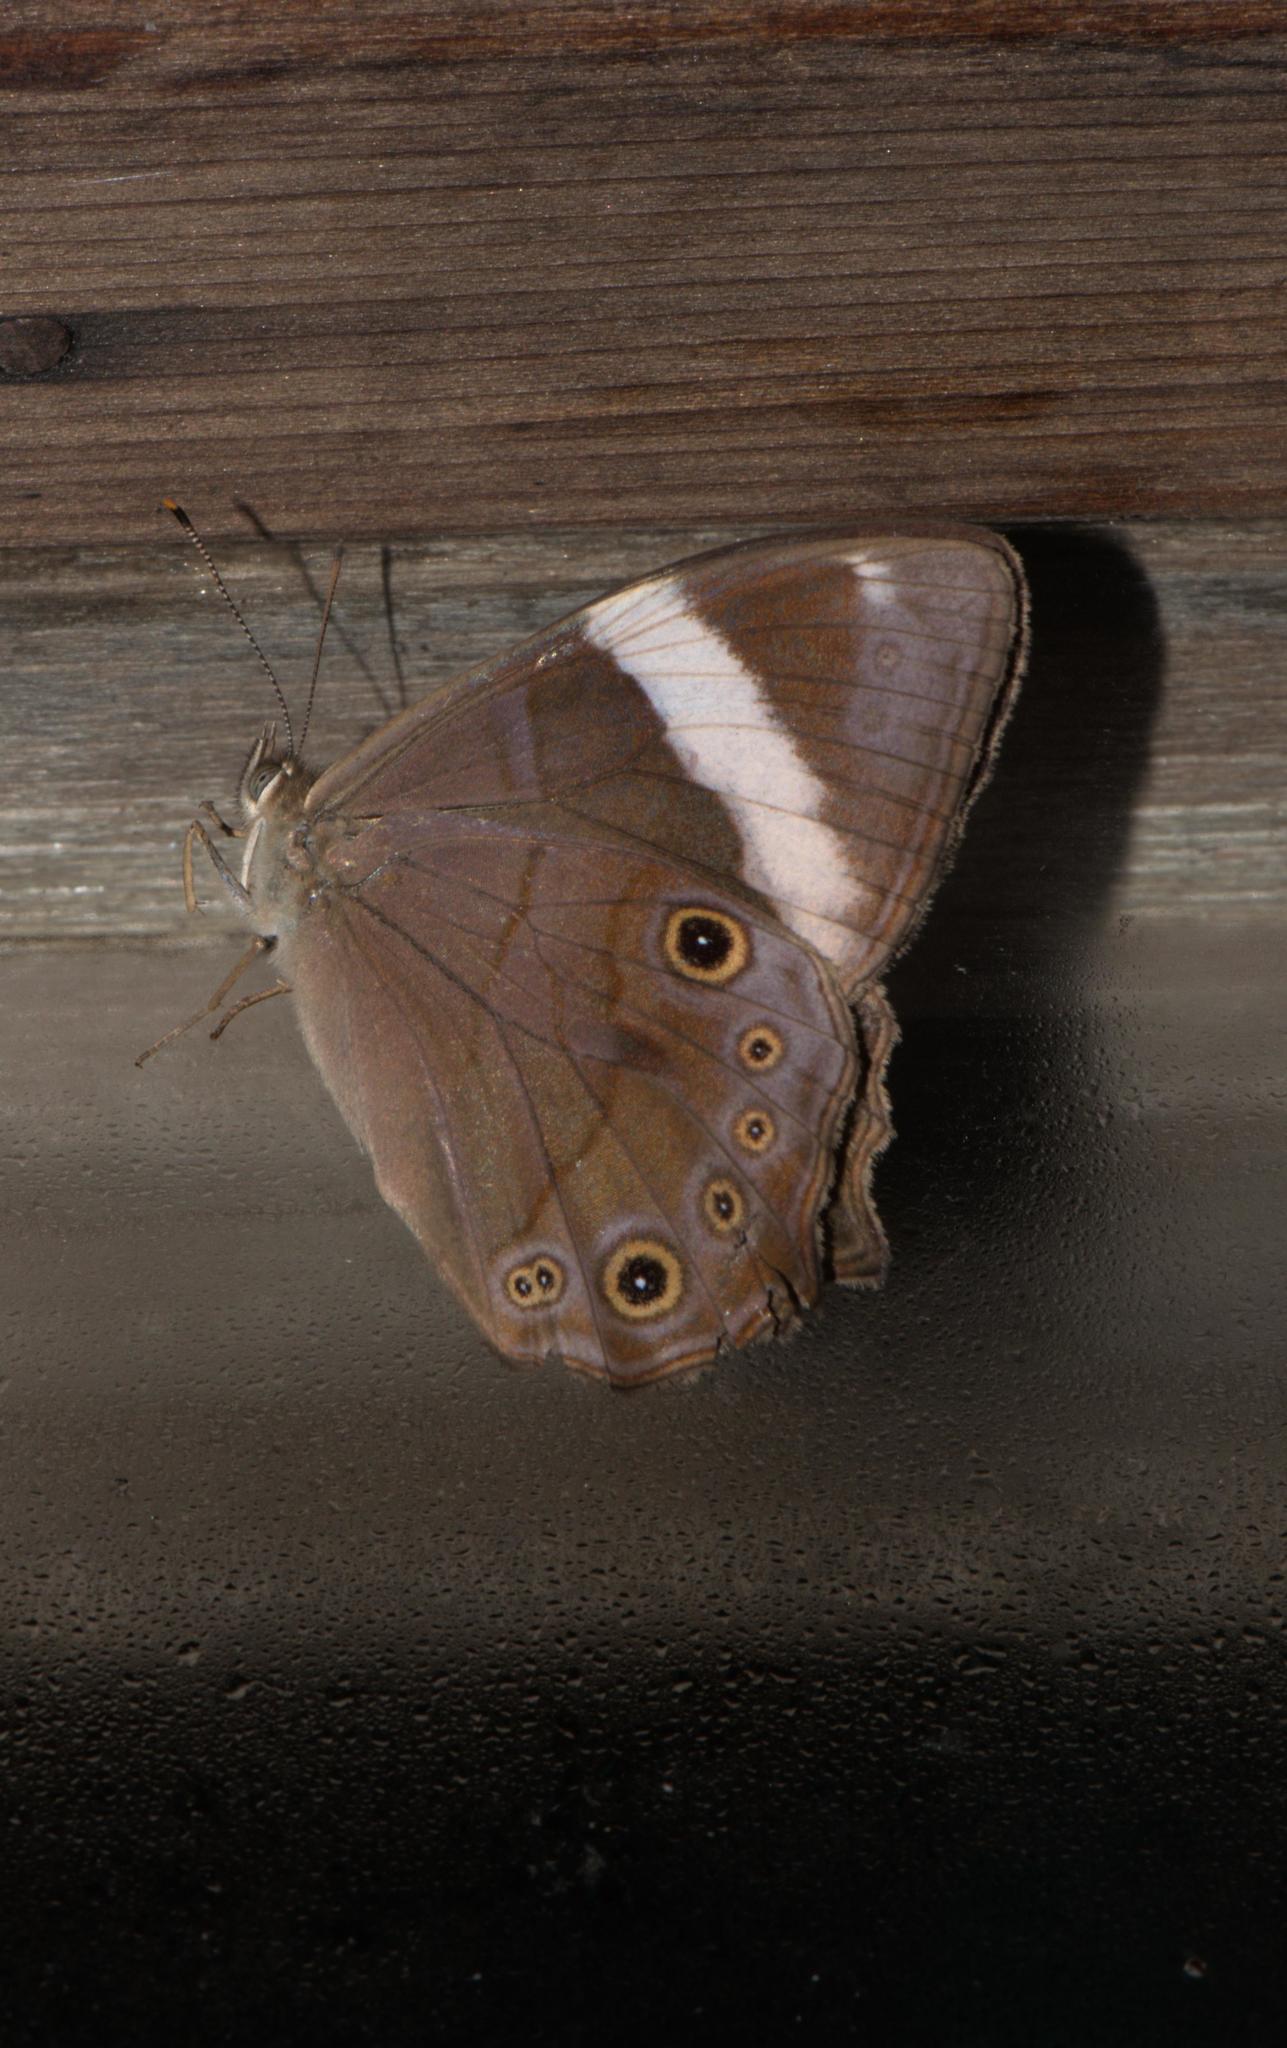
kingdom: Animalia
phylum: Arthropoda
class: Insecta
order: Lepidoptera
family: Nymphalidae
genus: Lethe
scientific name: Lethe
